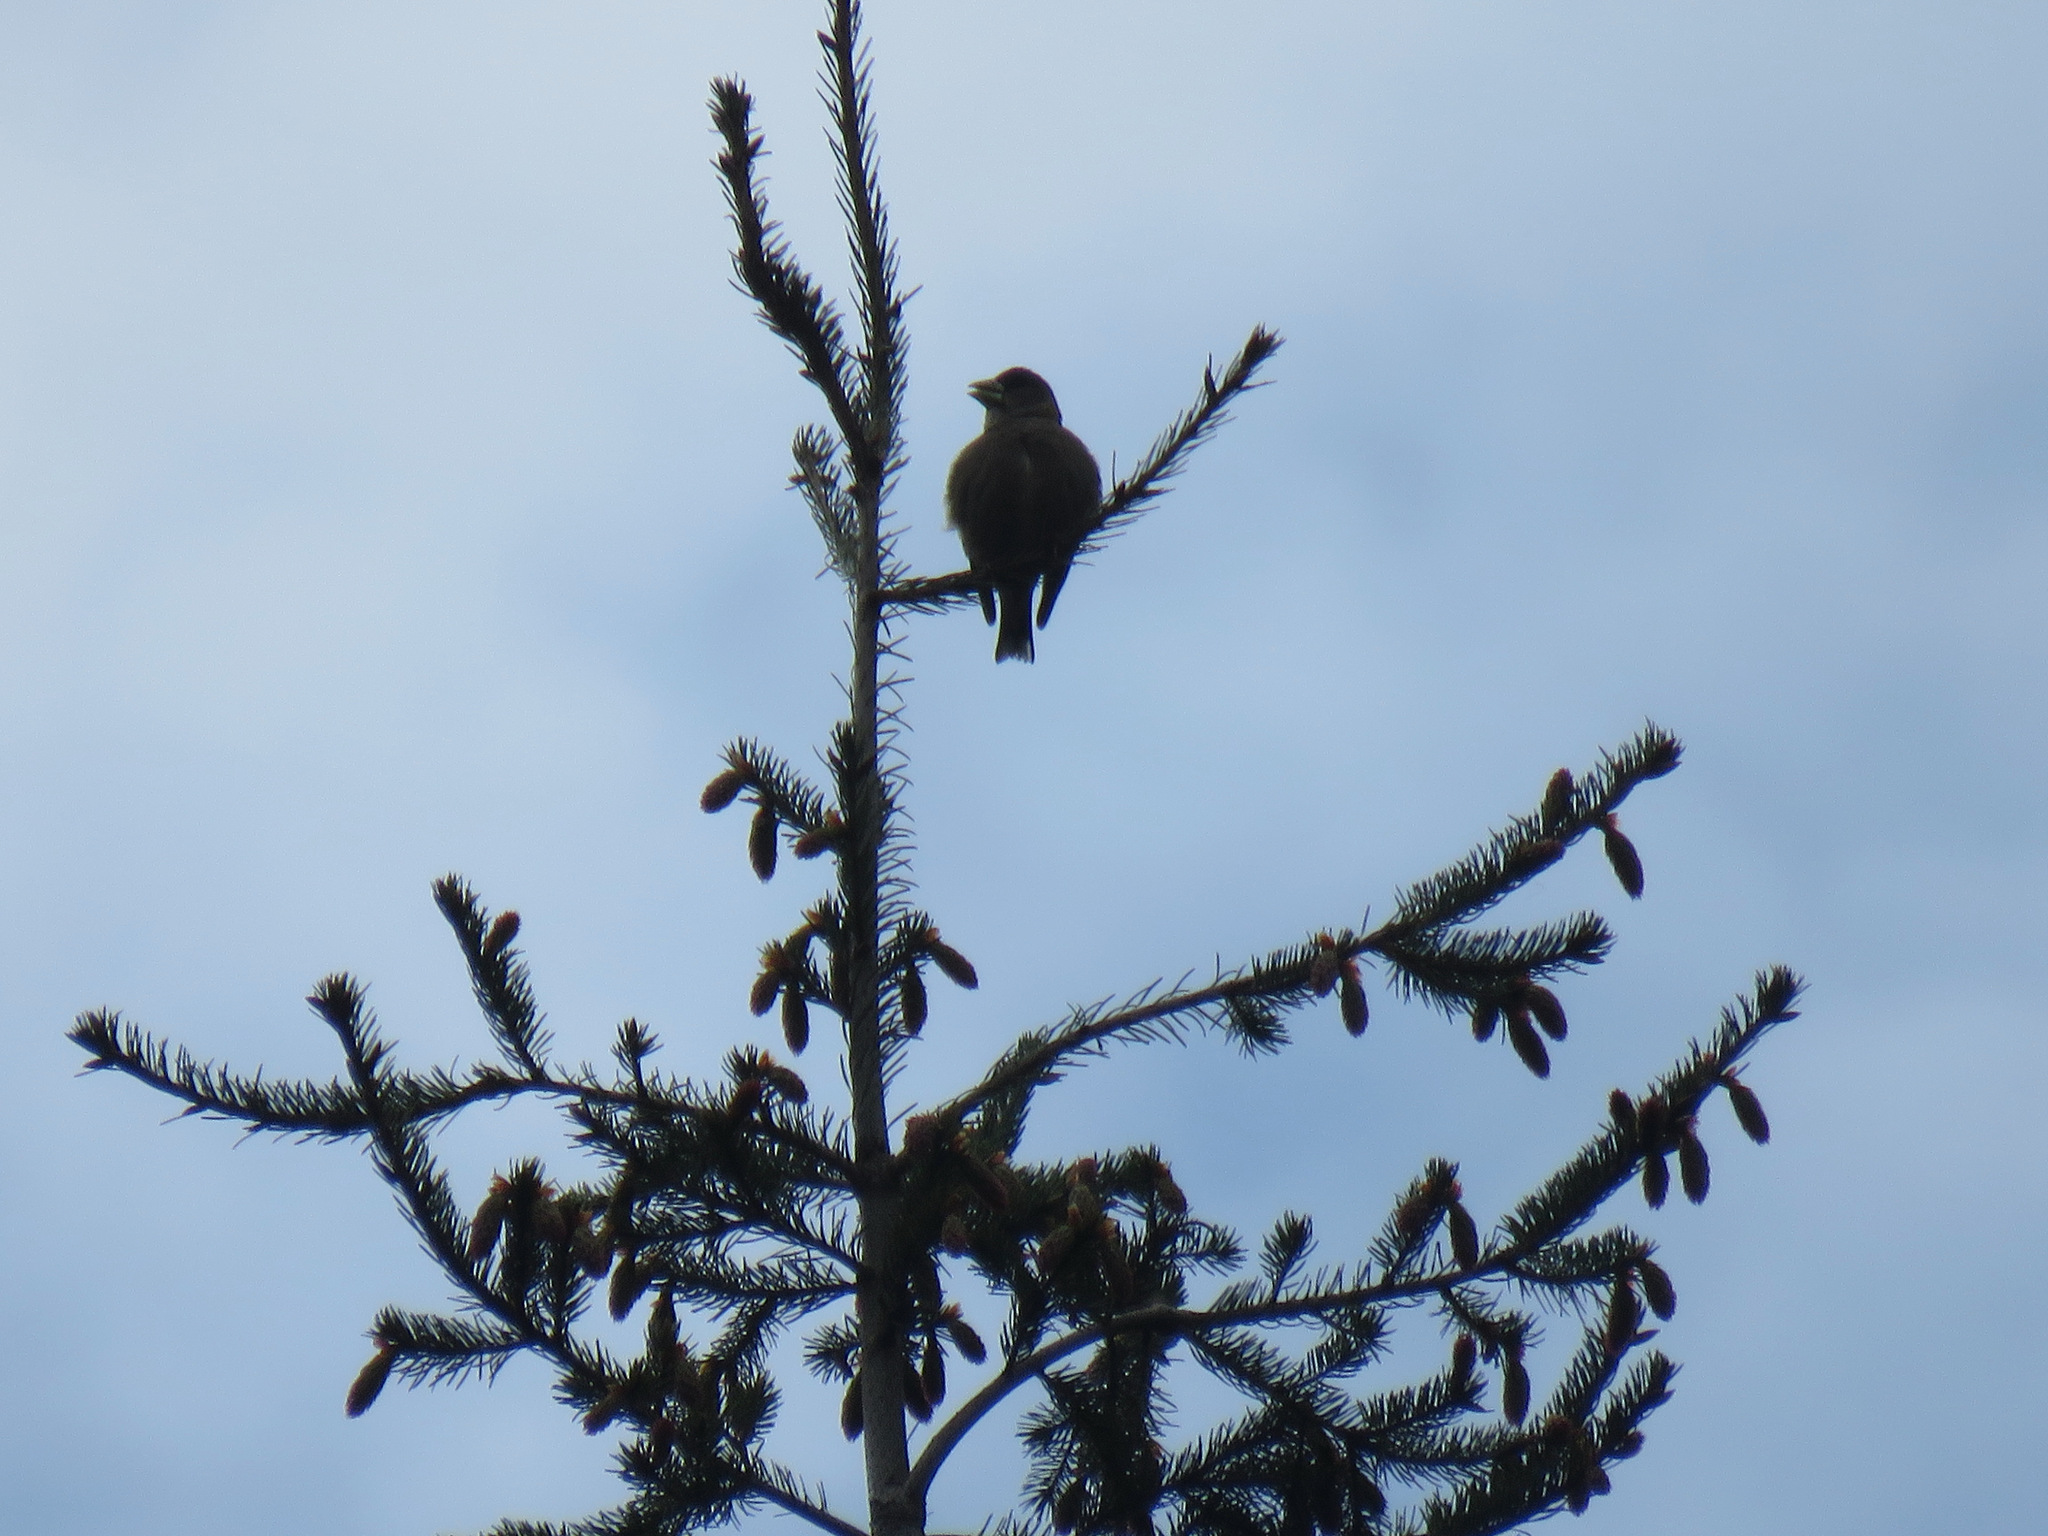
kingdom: Animalia
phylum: Chordata
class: Aves
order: Passeriformes
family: Fringillidae
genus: Hesperiphona
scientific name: Hesperiphona vespertina
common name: Evening grosbeak
